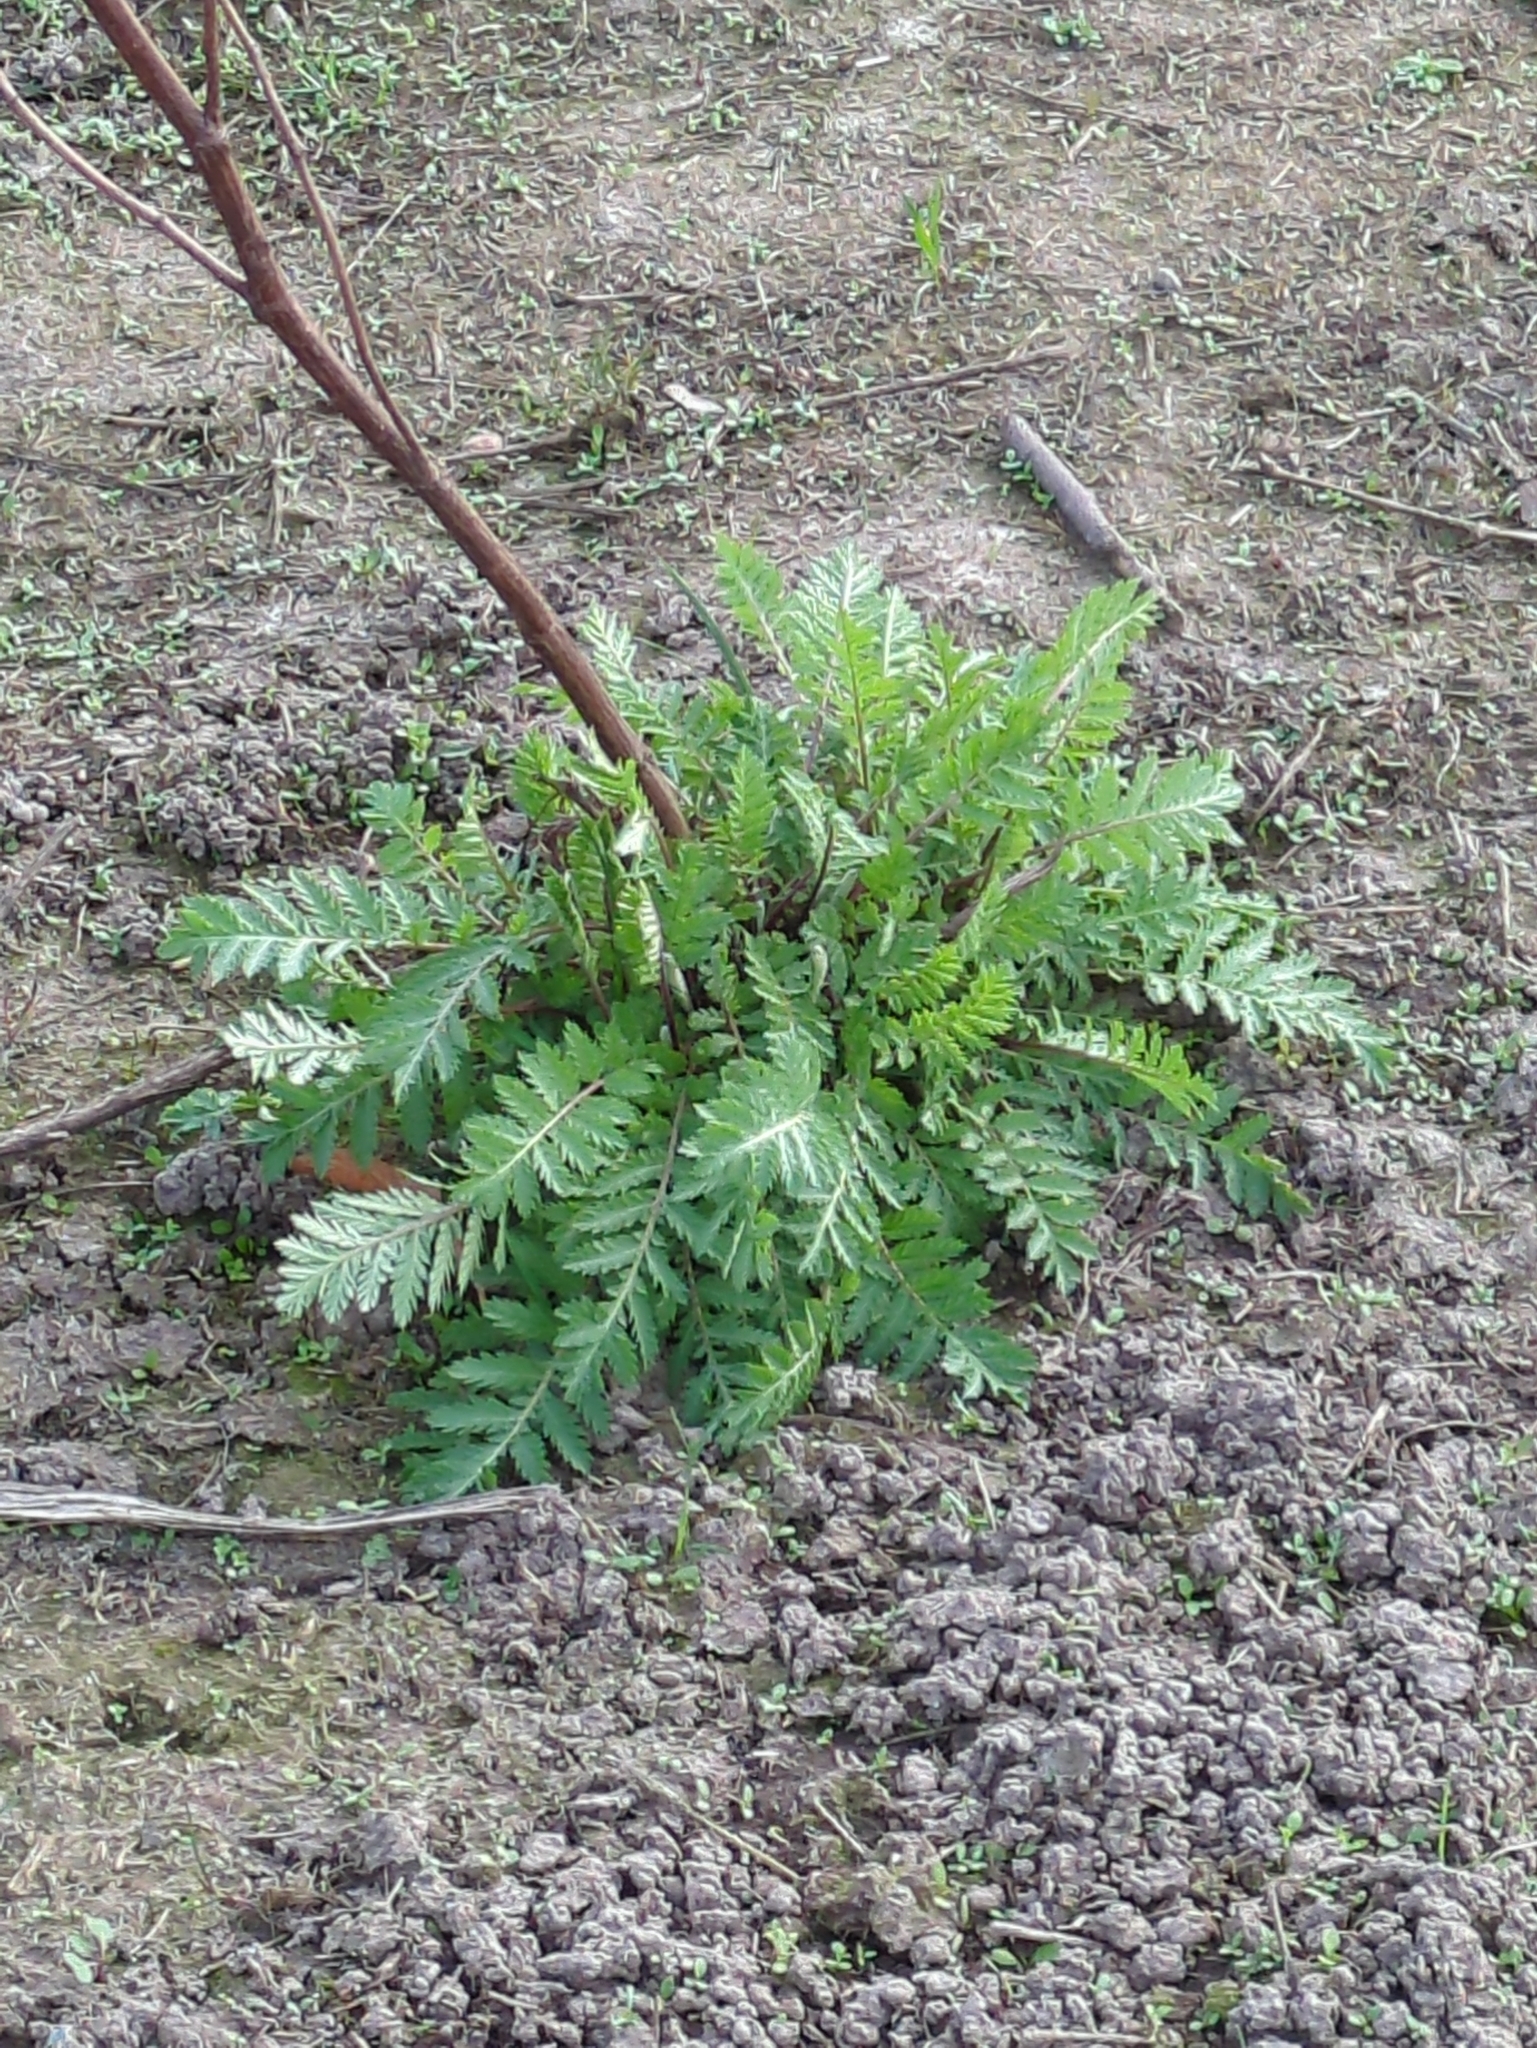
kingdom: Plantae
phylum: Tracheophyta
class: Magnoliopsida
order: Asterales
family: Asteraceae
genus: Tanacetum
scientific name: Tanacetum vulgare
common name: Common tansy
